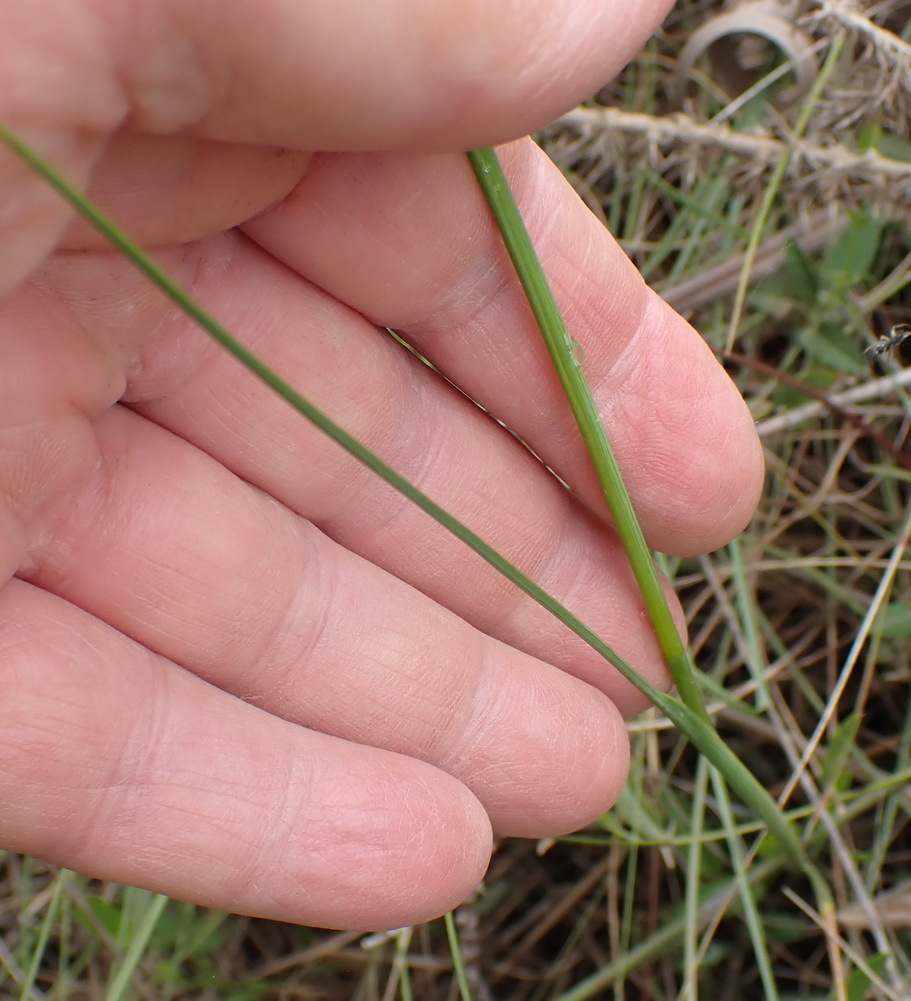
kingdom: Plantae
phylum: Tracheophyta
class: Liliopsida
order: Asparagales
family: Iridaceae
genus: Gladiolus
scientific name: Gladiolus rogersii
